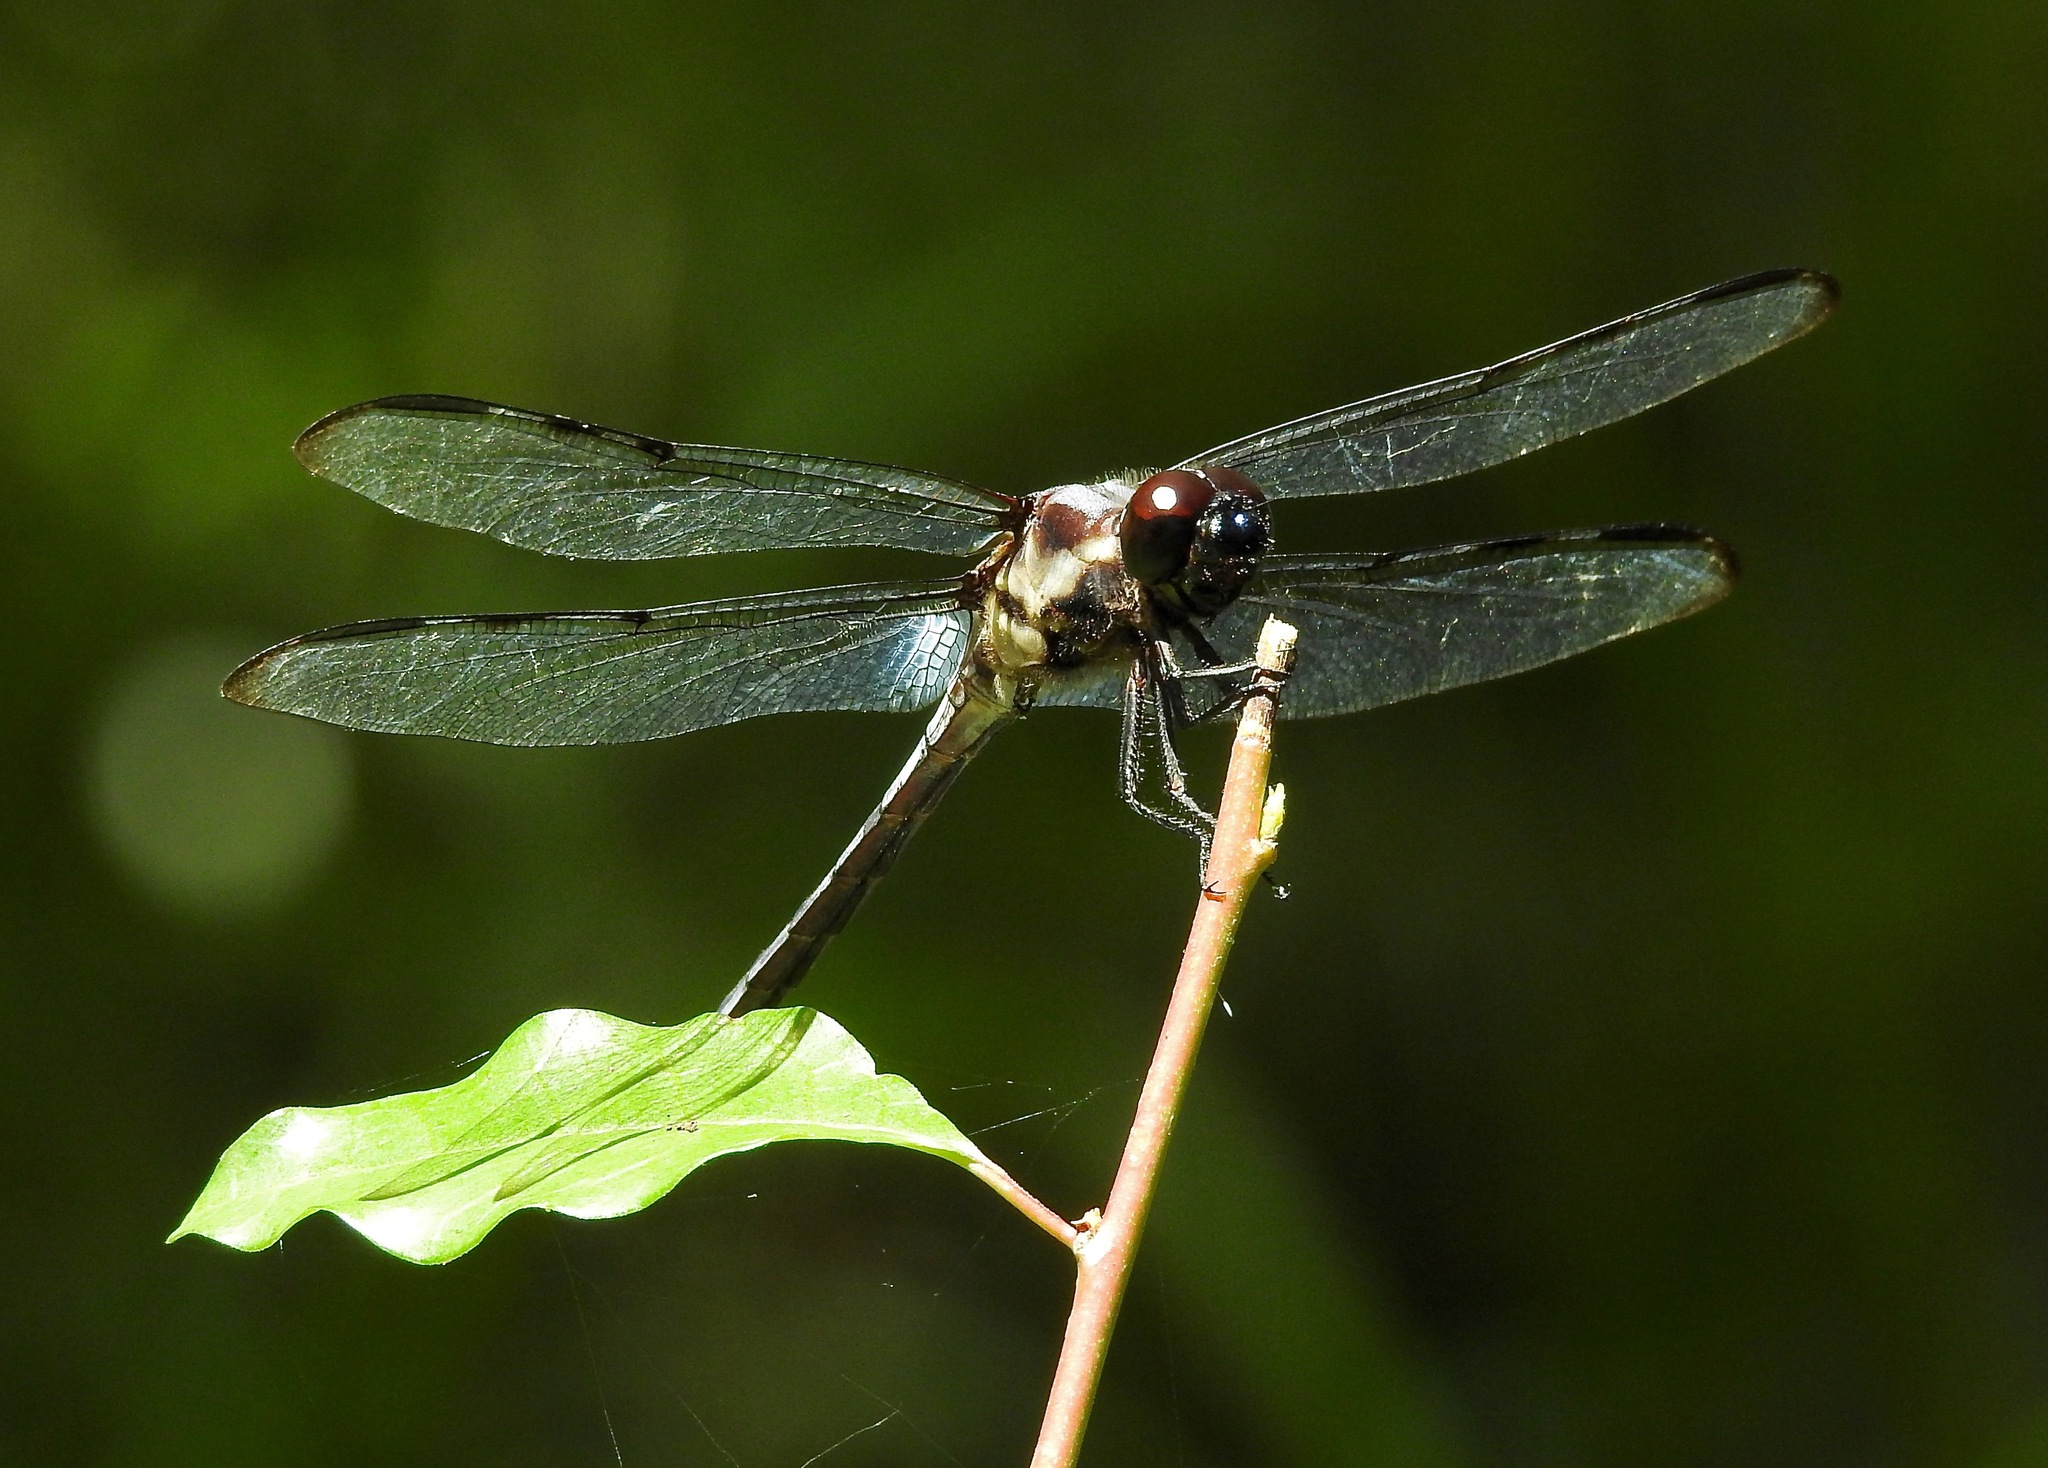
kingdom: Animalia
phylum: Arthropoda
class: Insecta
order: Odonata
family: Libellulidae
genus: Libellula
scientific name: Libellula axilena
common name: Bar-winged skimmer
